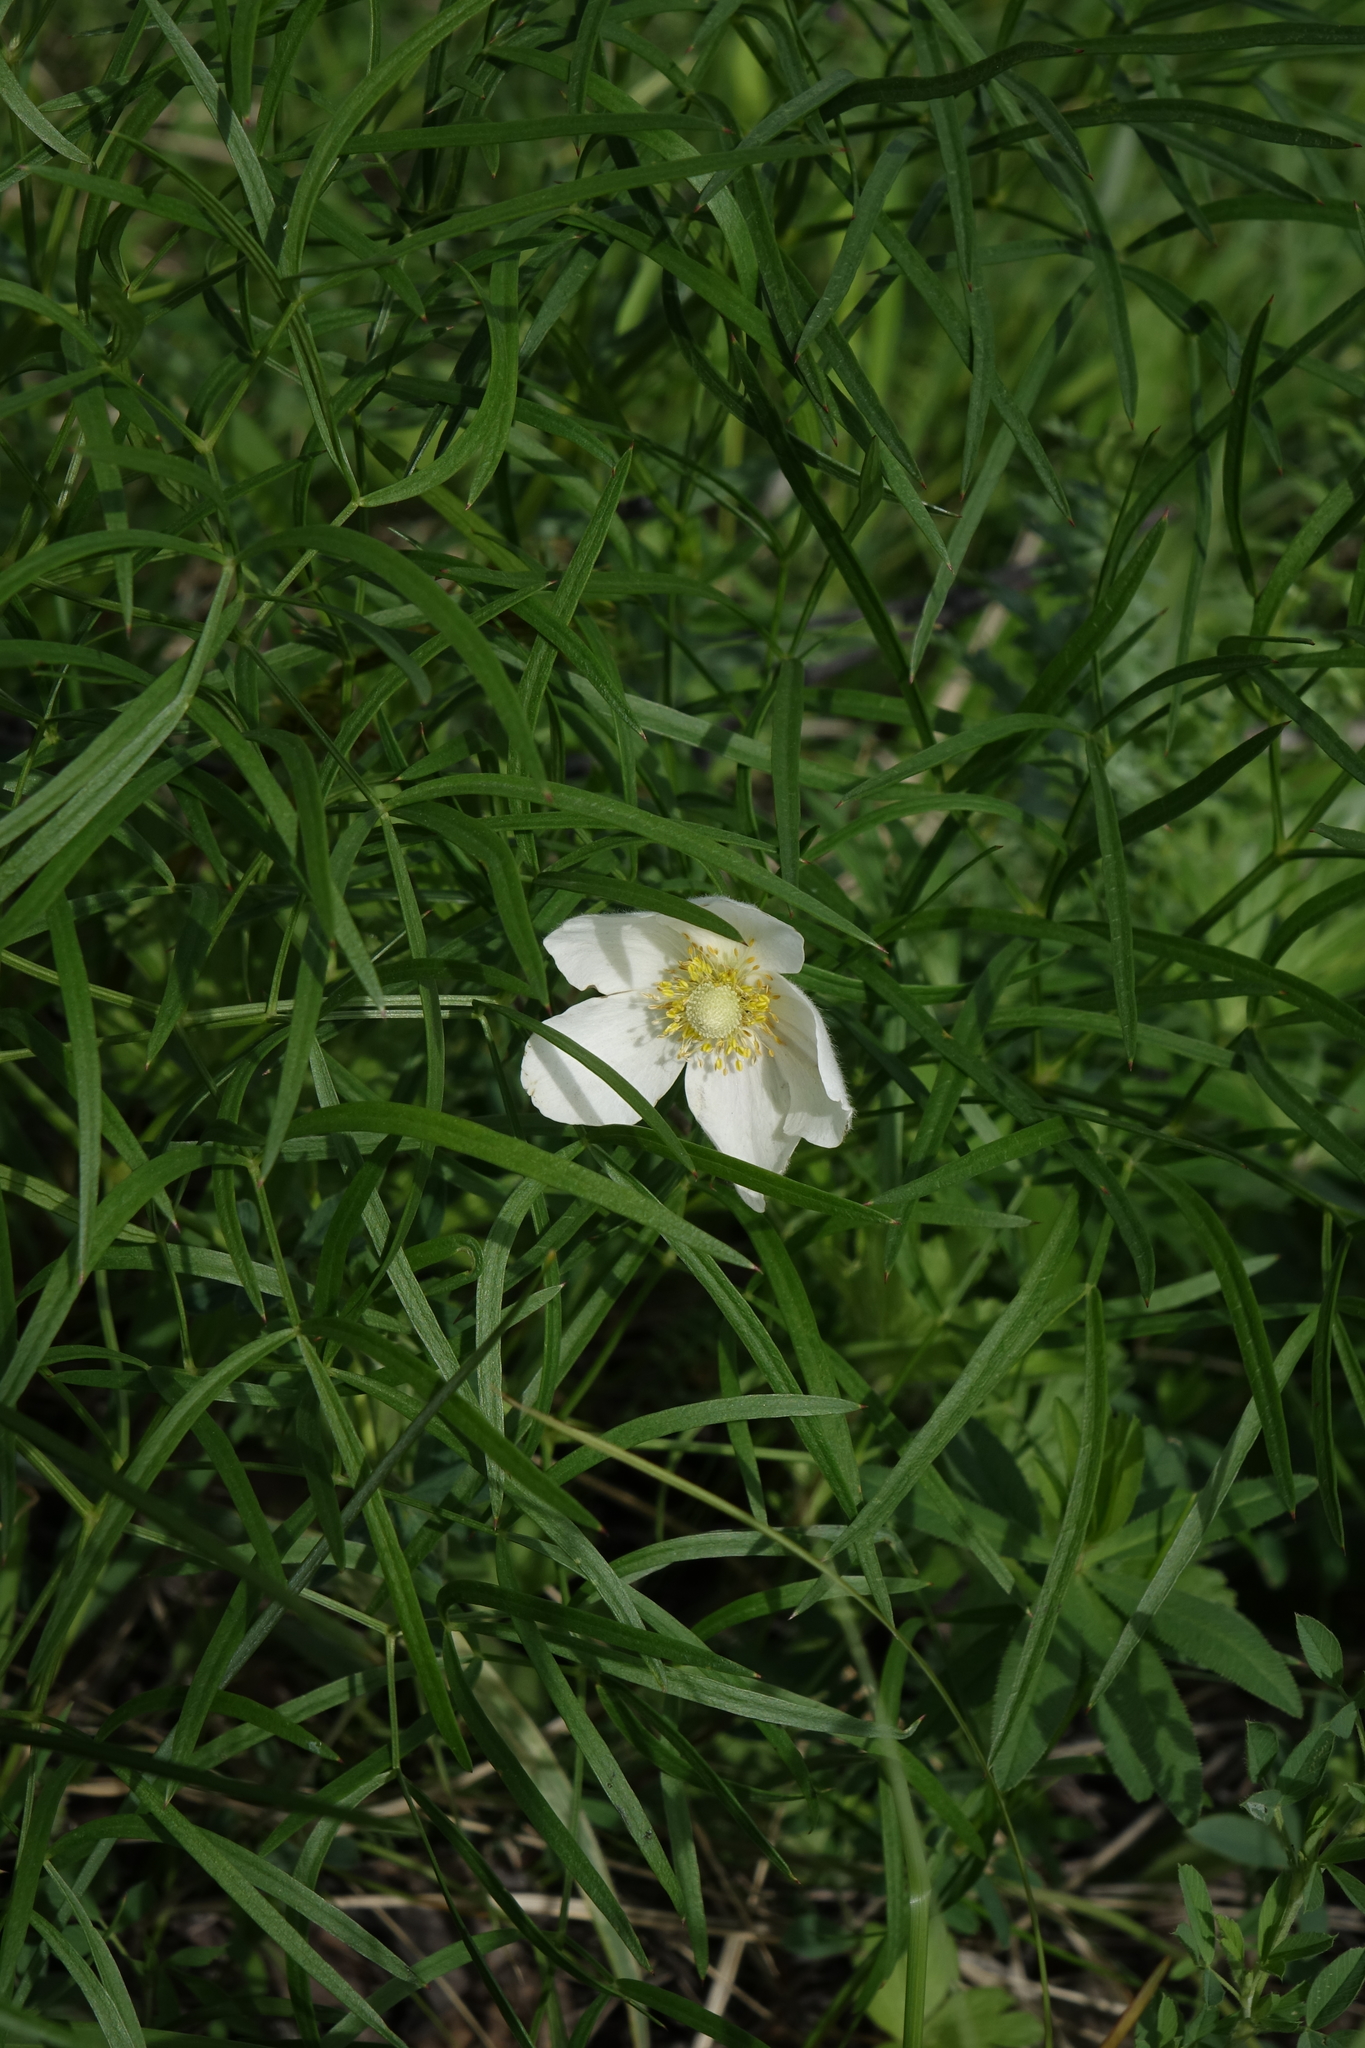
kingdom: Plantae
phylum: Tracheophyta
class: Magnoliopsida
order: Ranunculales
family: Ranunculaceae
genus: Anemone
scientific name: Anemone sylvestris
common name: Snowdrop anemone
